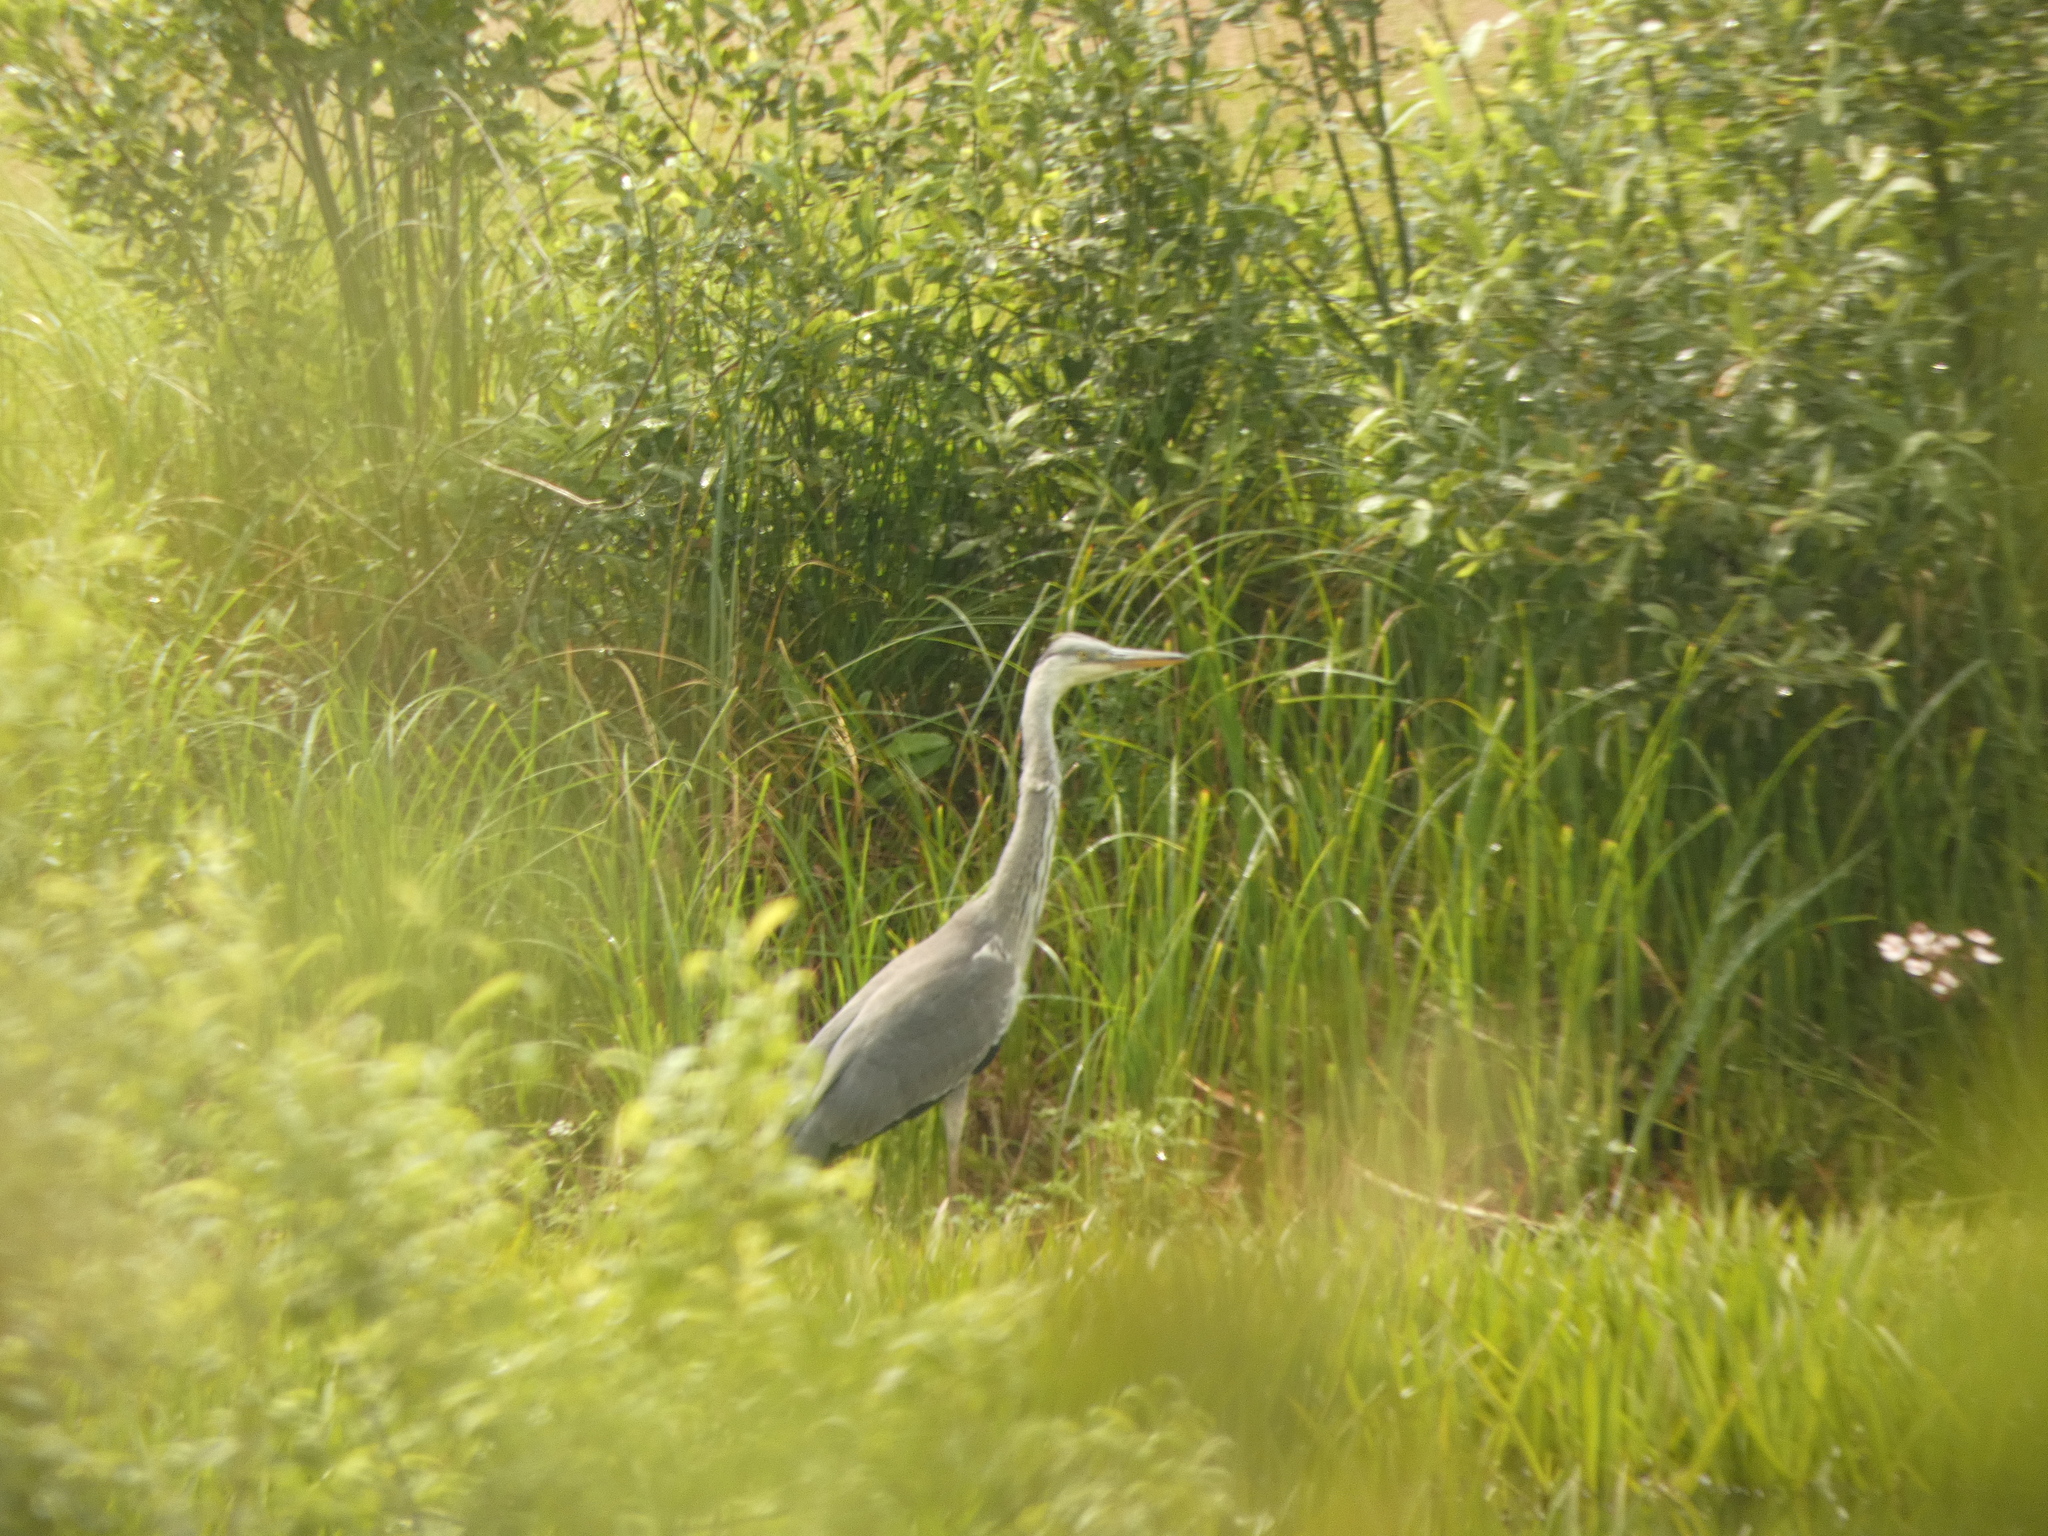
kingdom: Animalia
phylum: Chordata
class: Aves
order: Pelecaniformes
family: Ardeidae
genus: Ardea
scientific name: Ardea cinerea
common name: Grey heron
